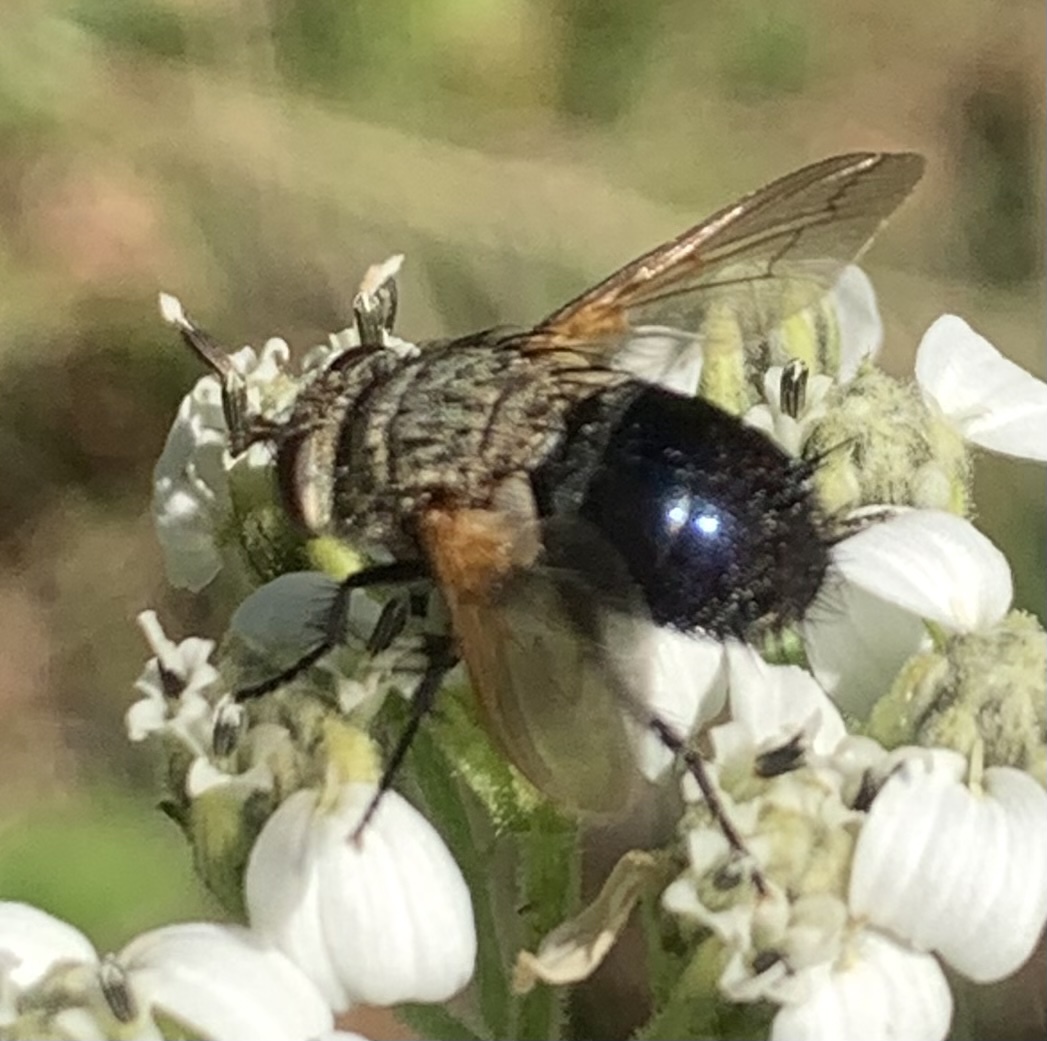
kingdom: Animalia
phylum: Arthropoda
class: Insecta
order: Diptera
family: Tachinidae
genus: Archytas
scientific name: Archytas
